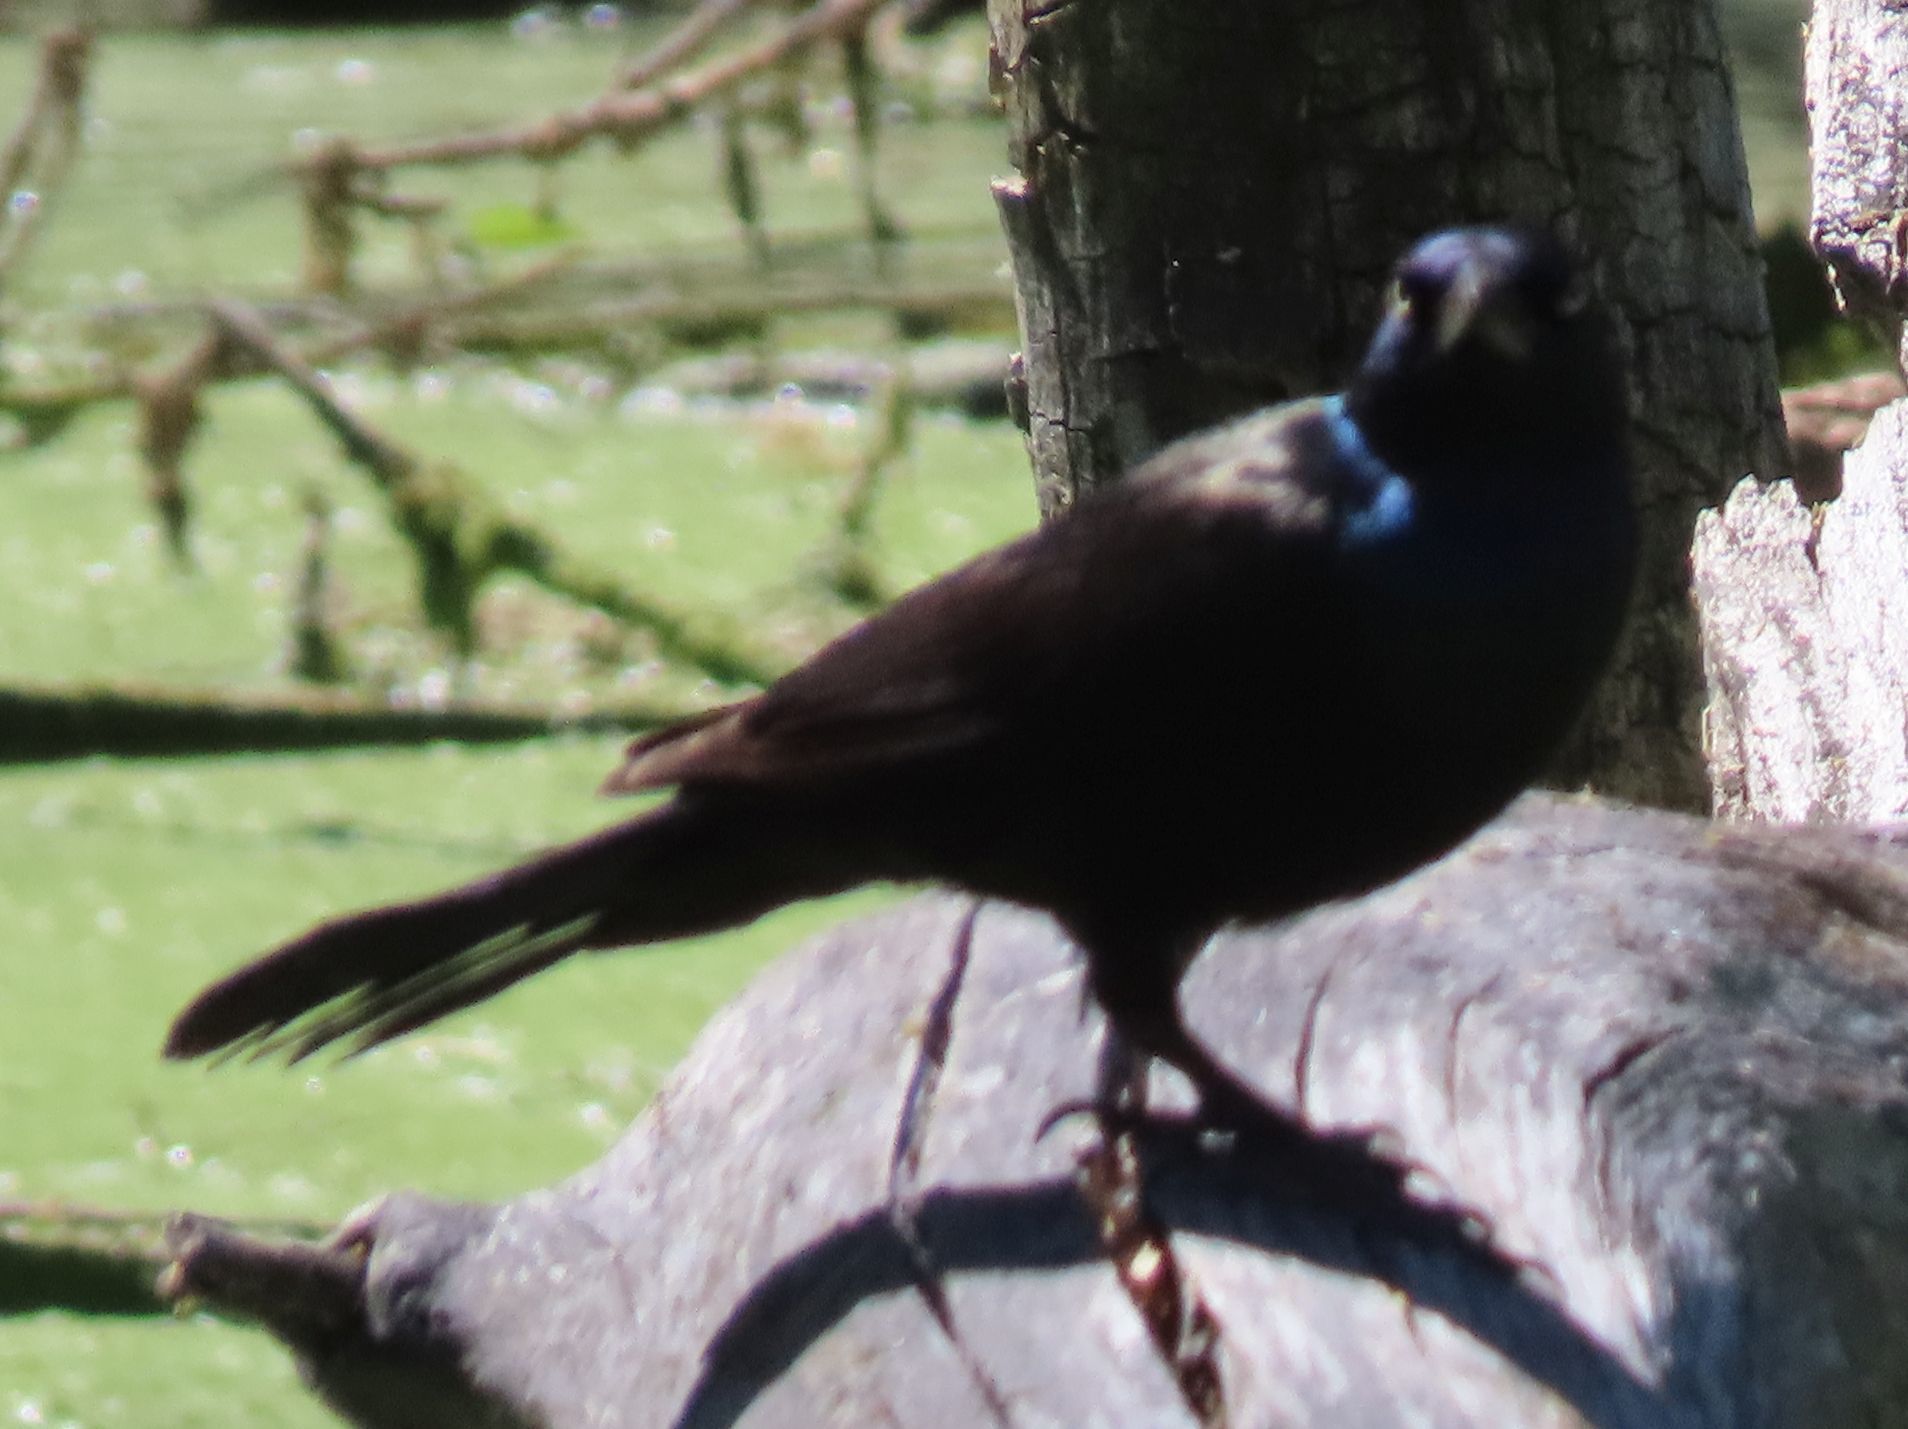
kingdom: Animalia
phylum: Chordata
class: Aves
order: Passeriformes
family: Icteridae
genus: Quiscalus
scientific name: Quiscalus quiscula
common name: Common grackle
